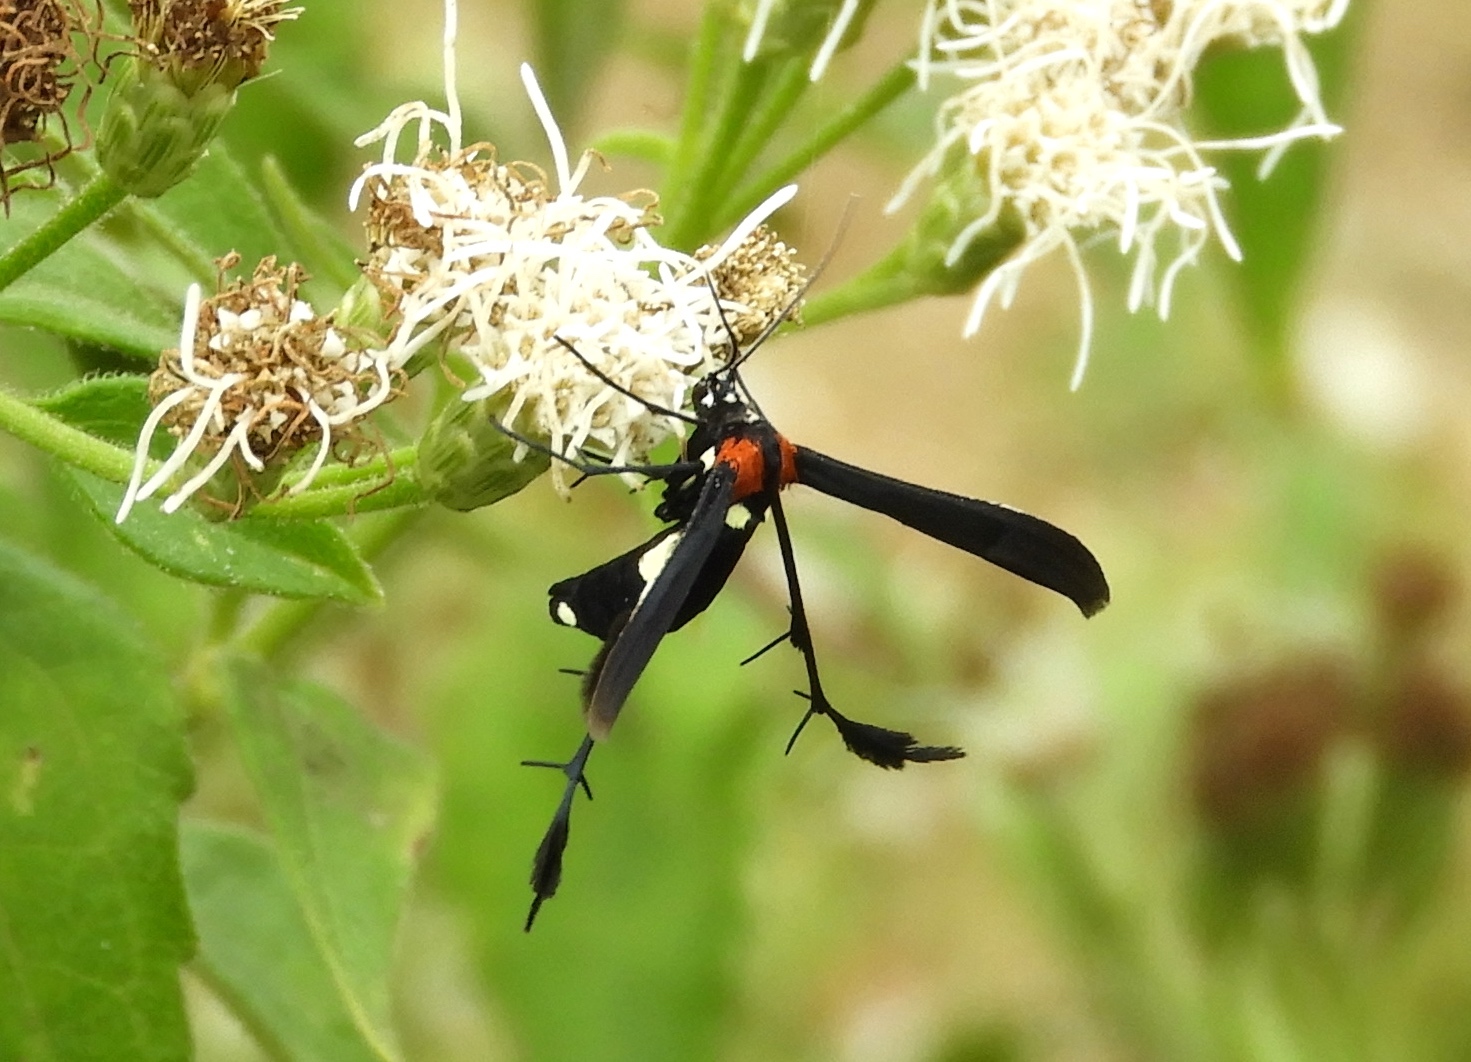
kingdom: Animalia
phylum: Arthropoda
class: Insecta
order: Lepidoptera
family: Pterophoridae
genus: Hellinsia
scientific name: Hellinsia chamelai
